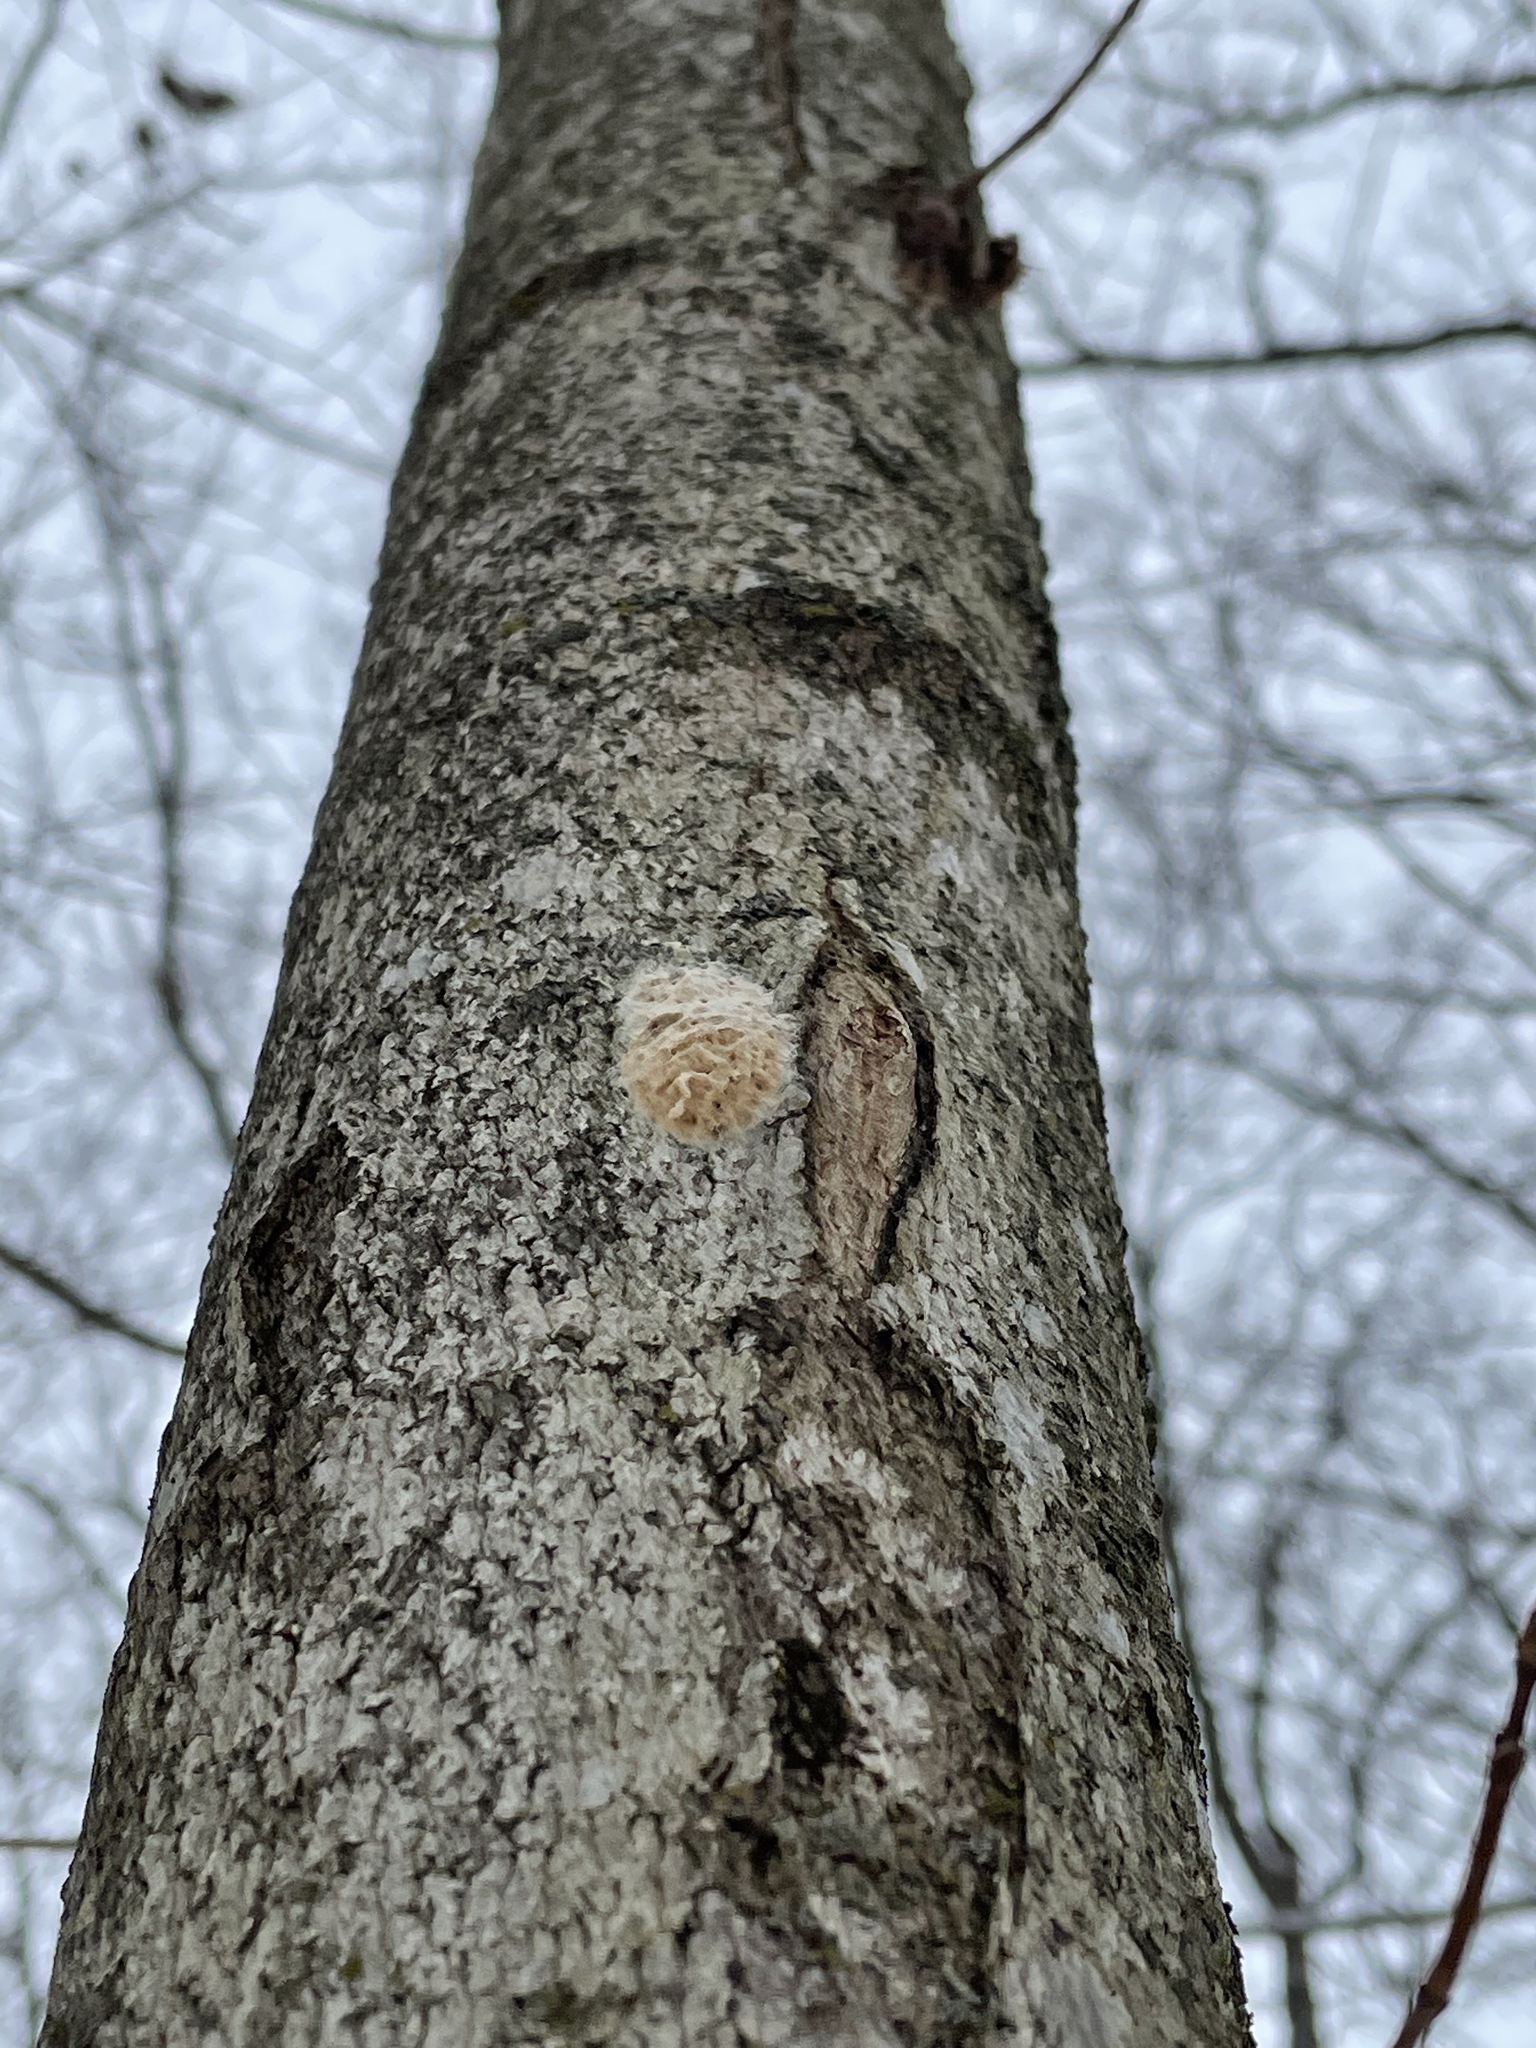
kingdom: Animalia
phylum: Arthropoda
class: Insecta
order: Lepidoptera
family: Erebidae
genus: Lymantria
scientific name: Lymantria dispar
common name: Gypsy moth
